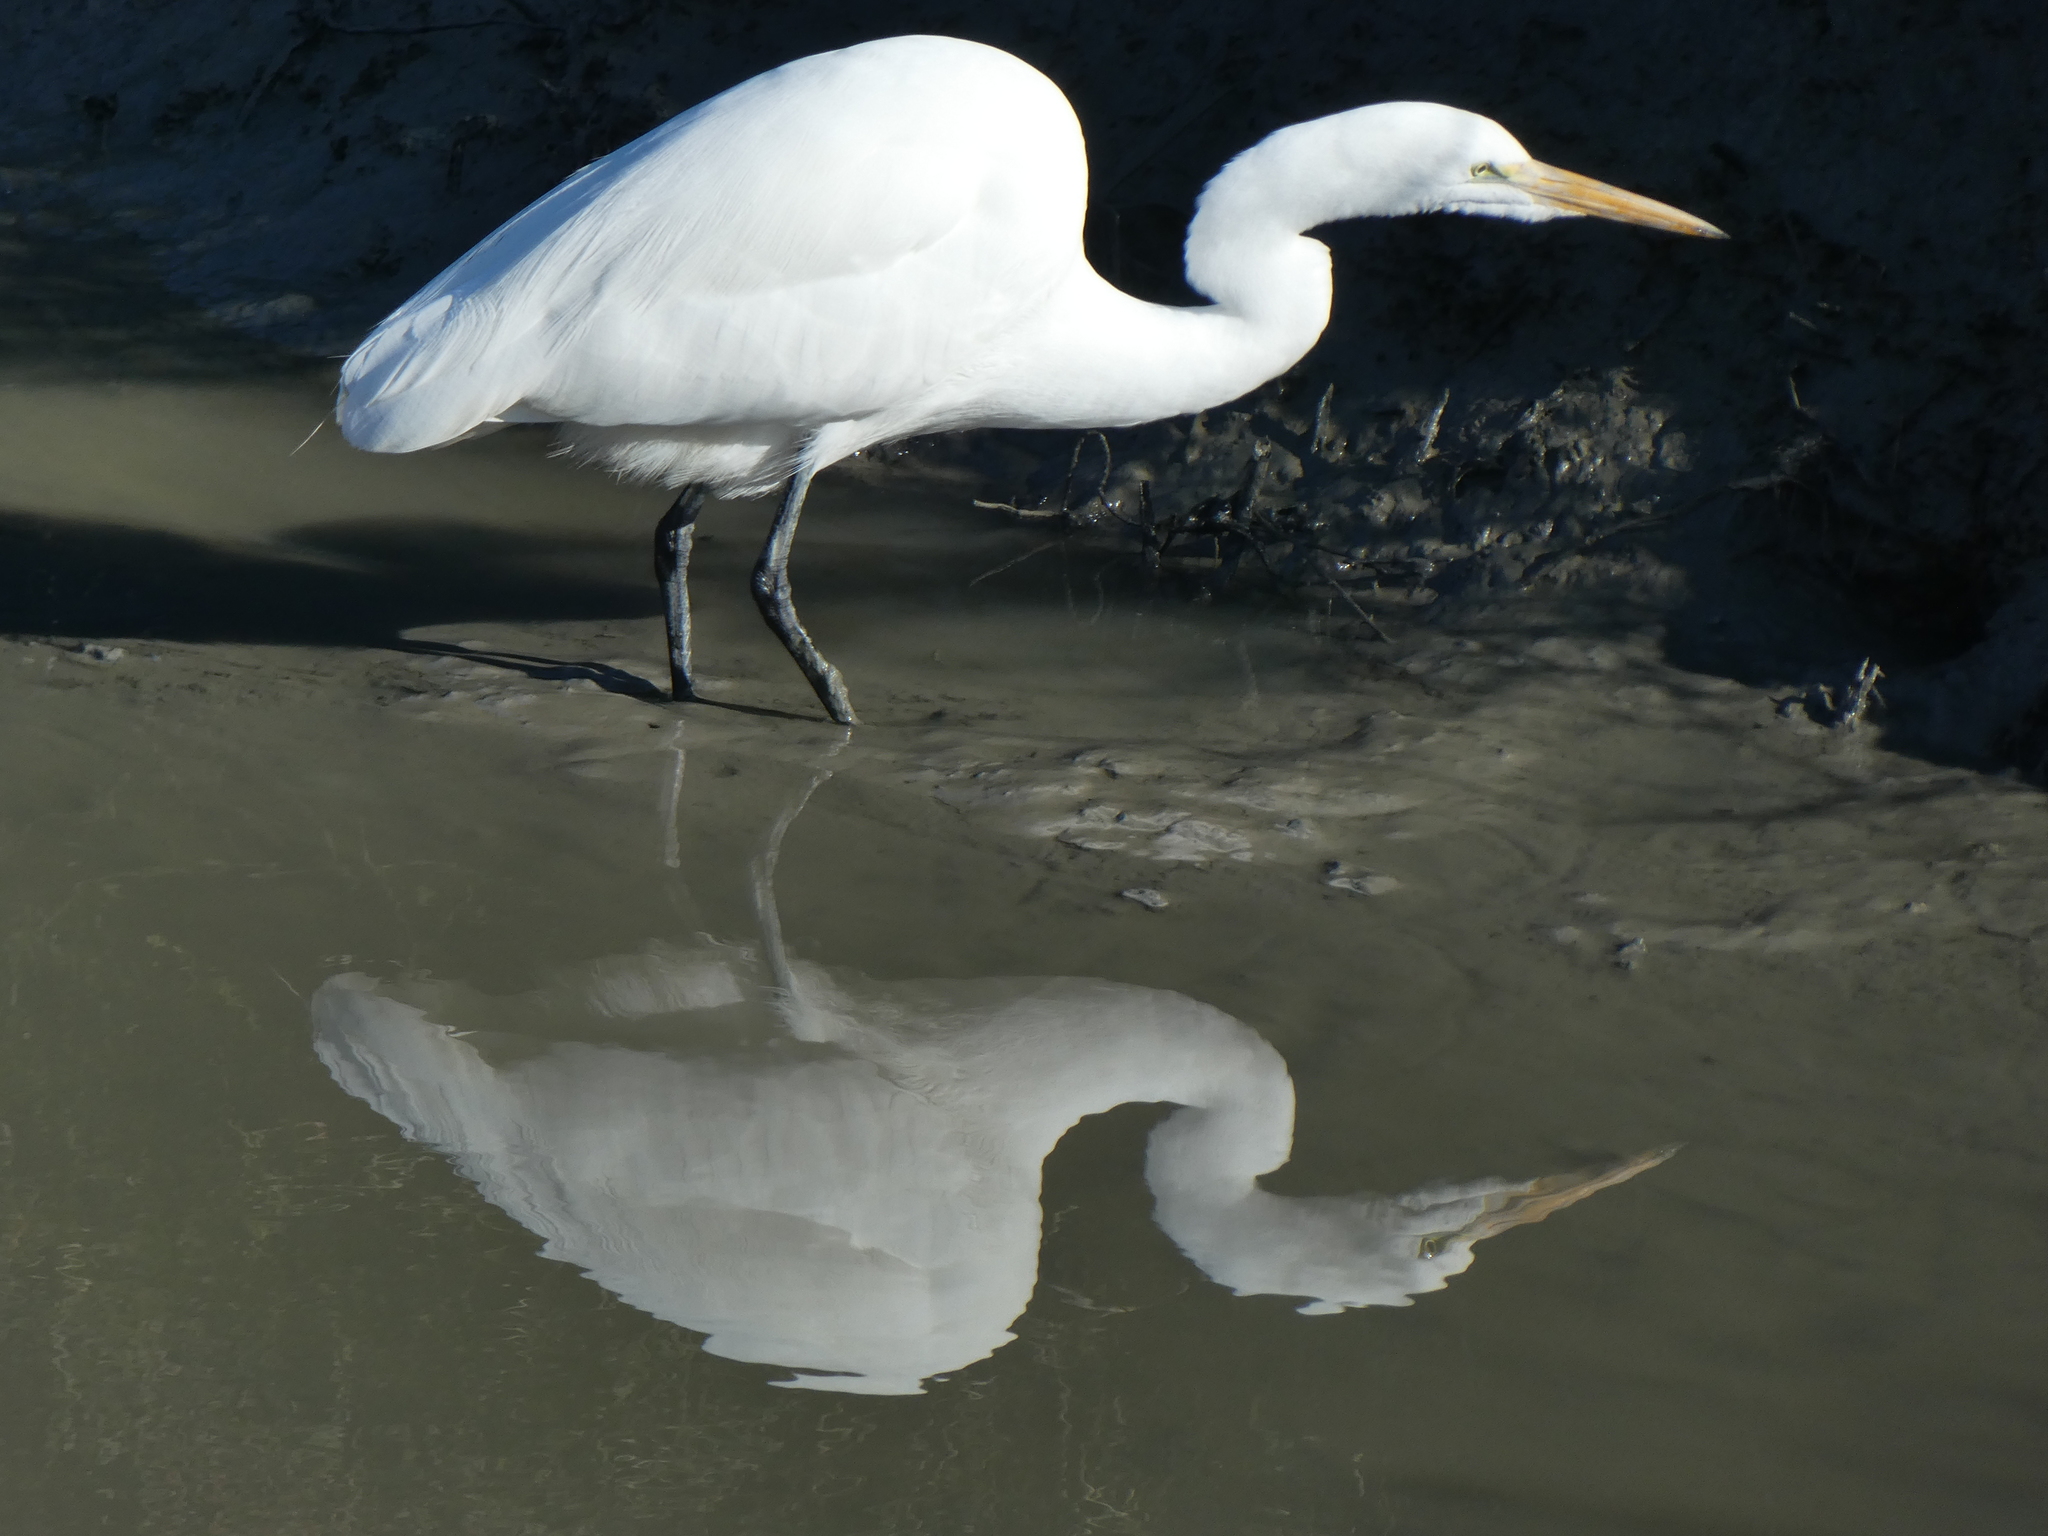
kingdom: Animalia
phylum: Chordata
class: Aves
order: Pelecaniformes
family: Ardeidae
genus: Ardea
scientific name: Ardea alba
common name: Great egret
